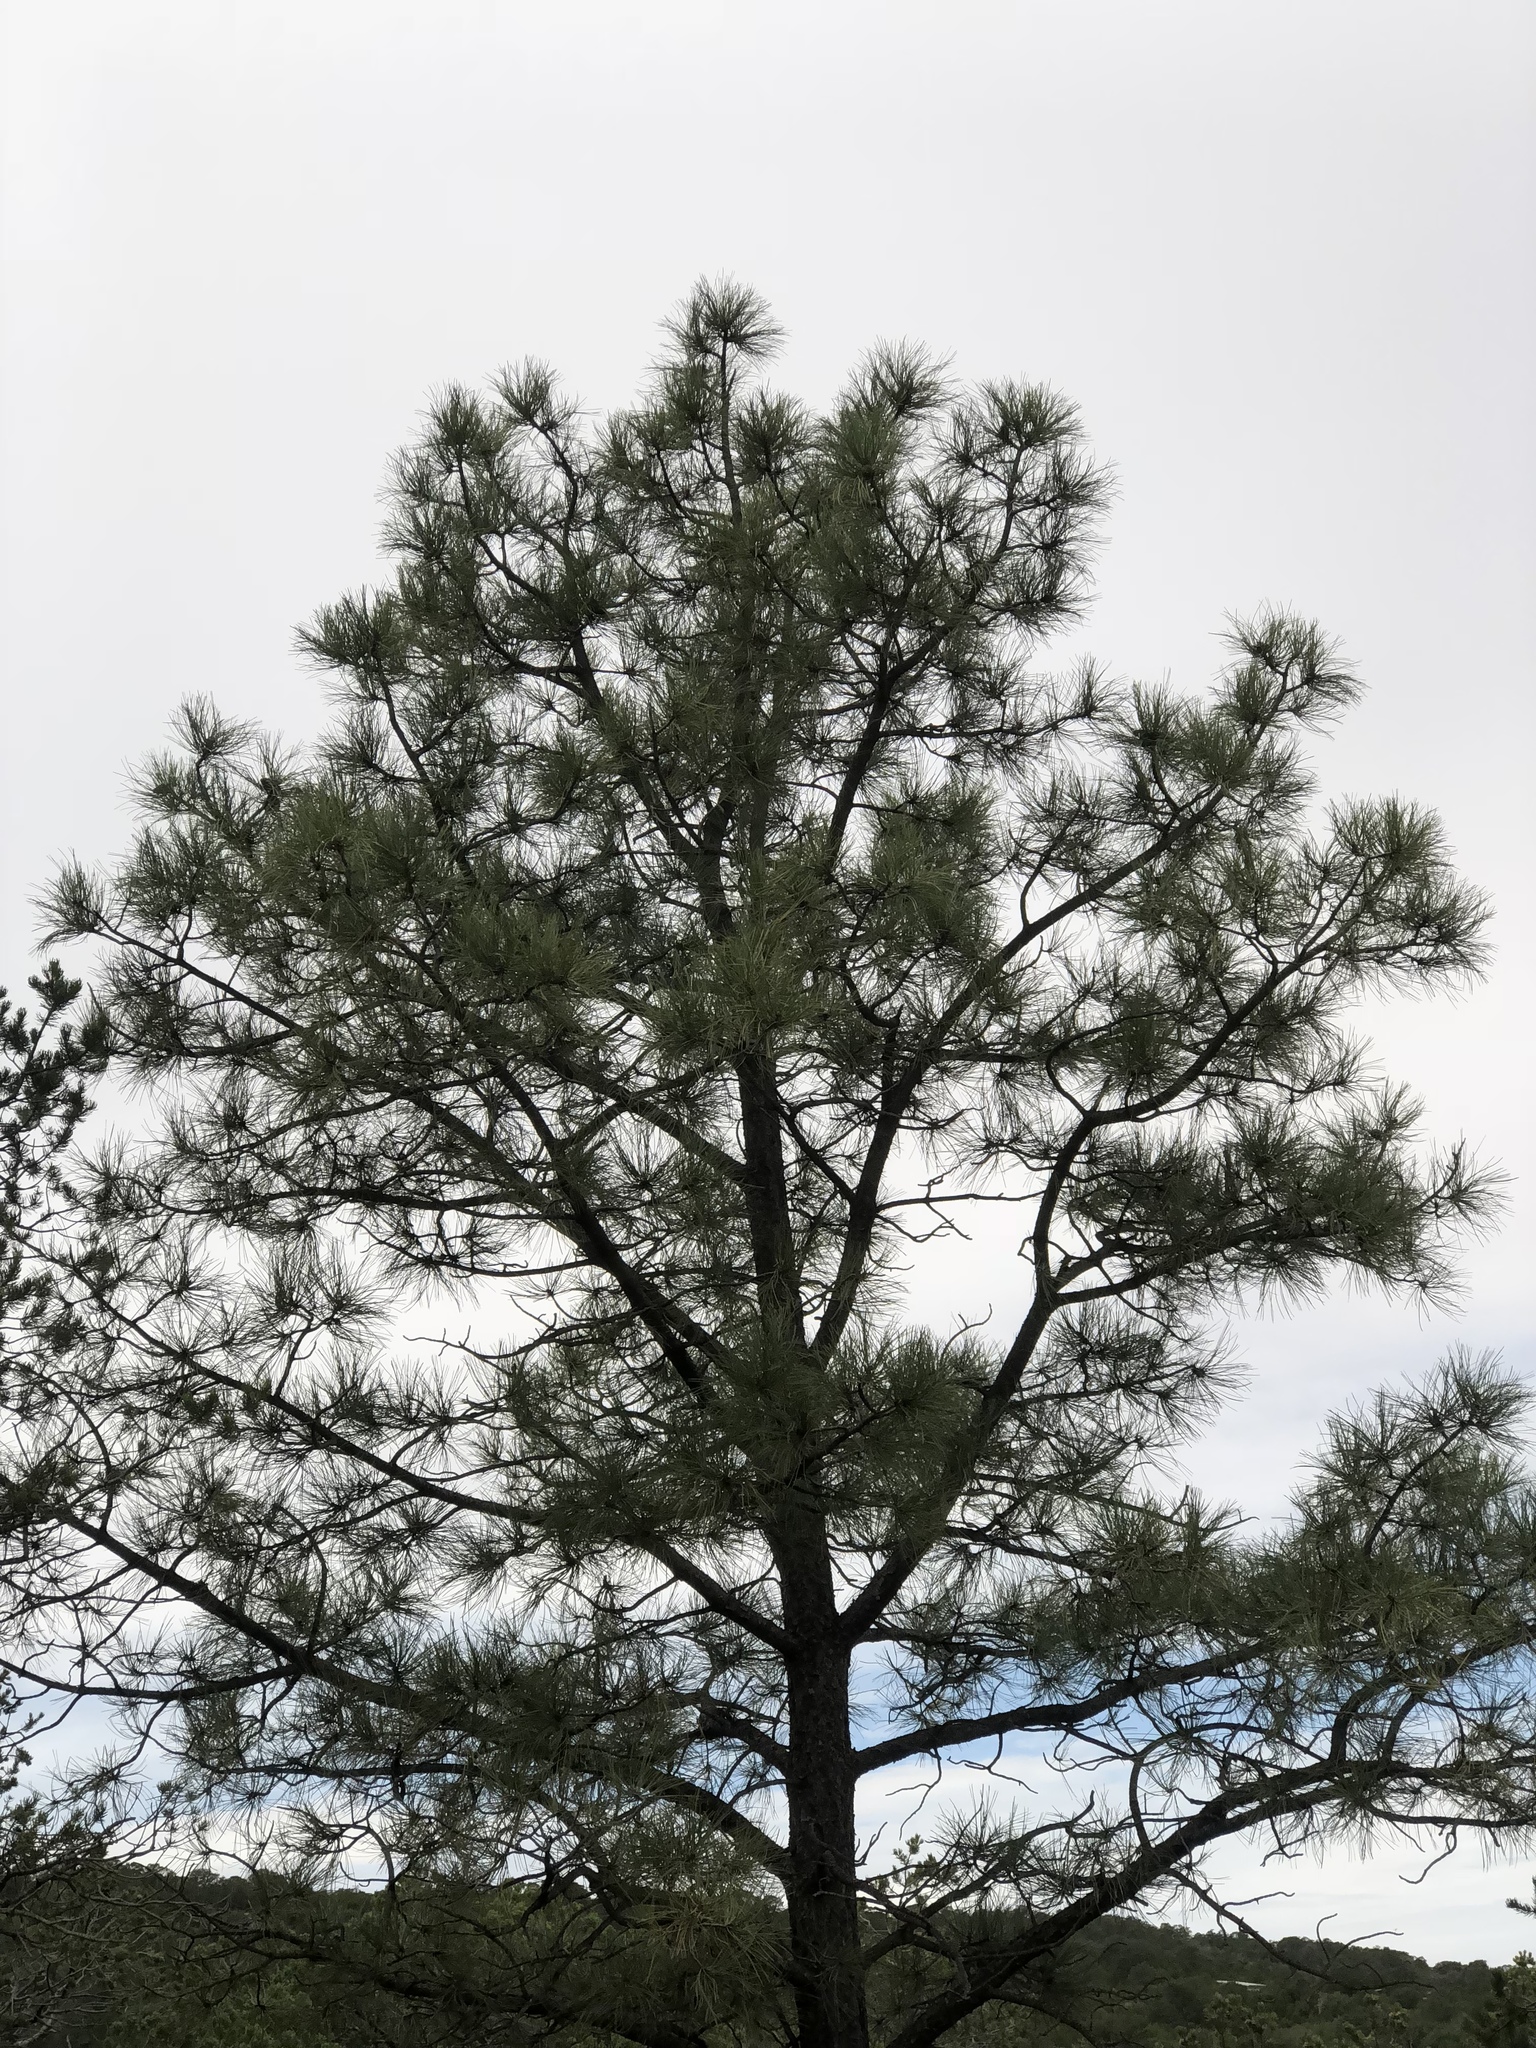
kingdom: Plantae
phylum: Tracheophyta
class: Pinopsida
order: Pinales
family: Pinaceae
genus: Pinus
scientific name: Pinus ponderosa
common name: Western yellow-pine
